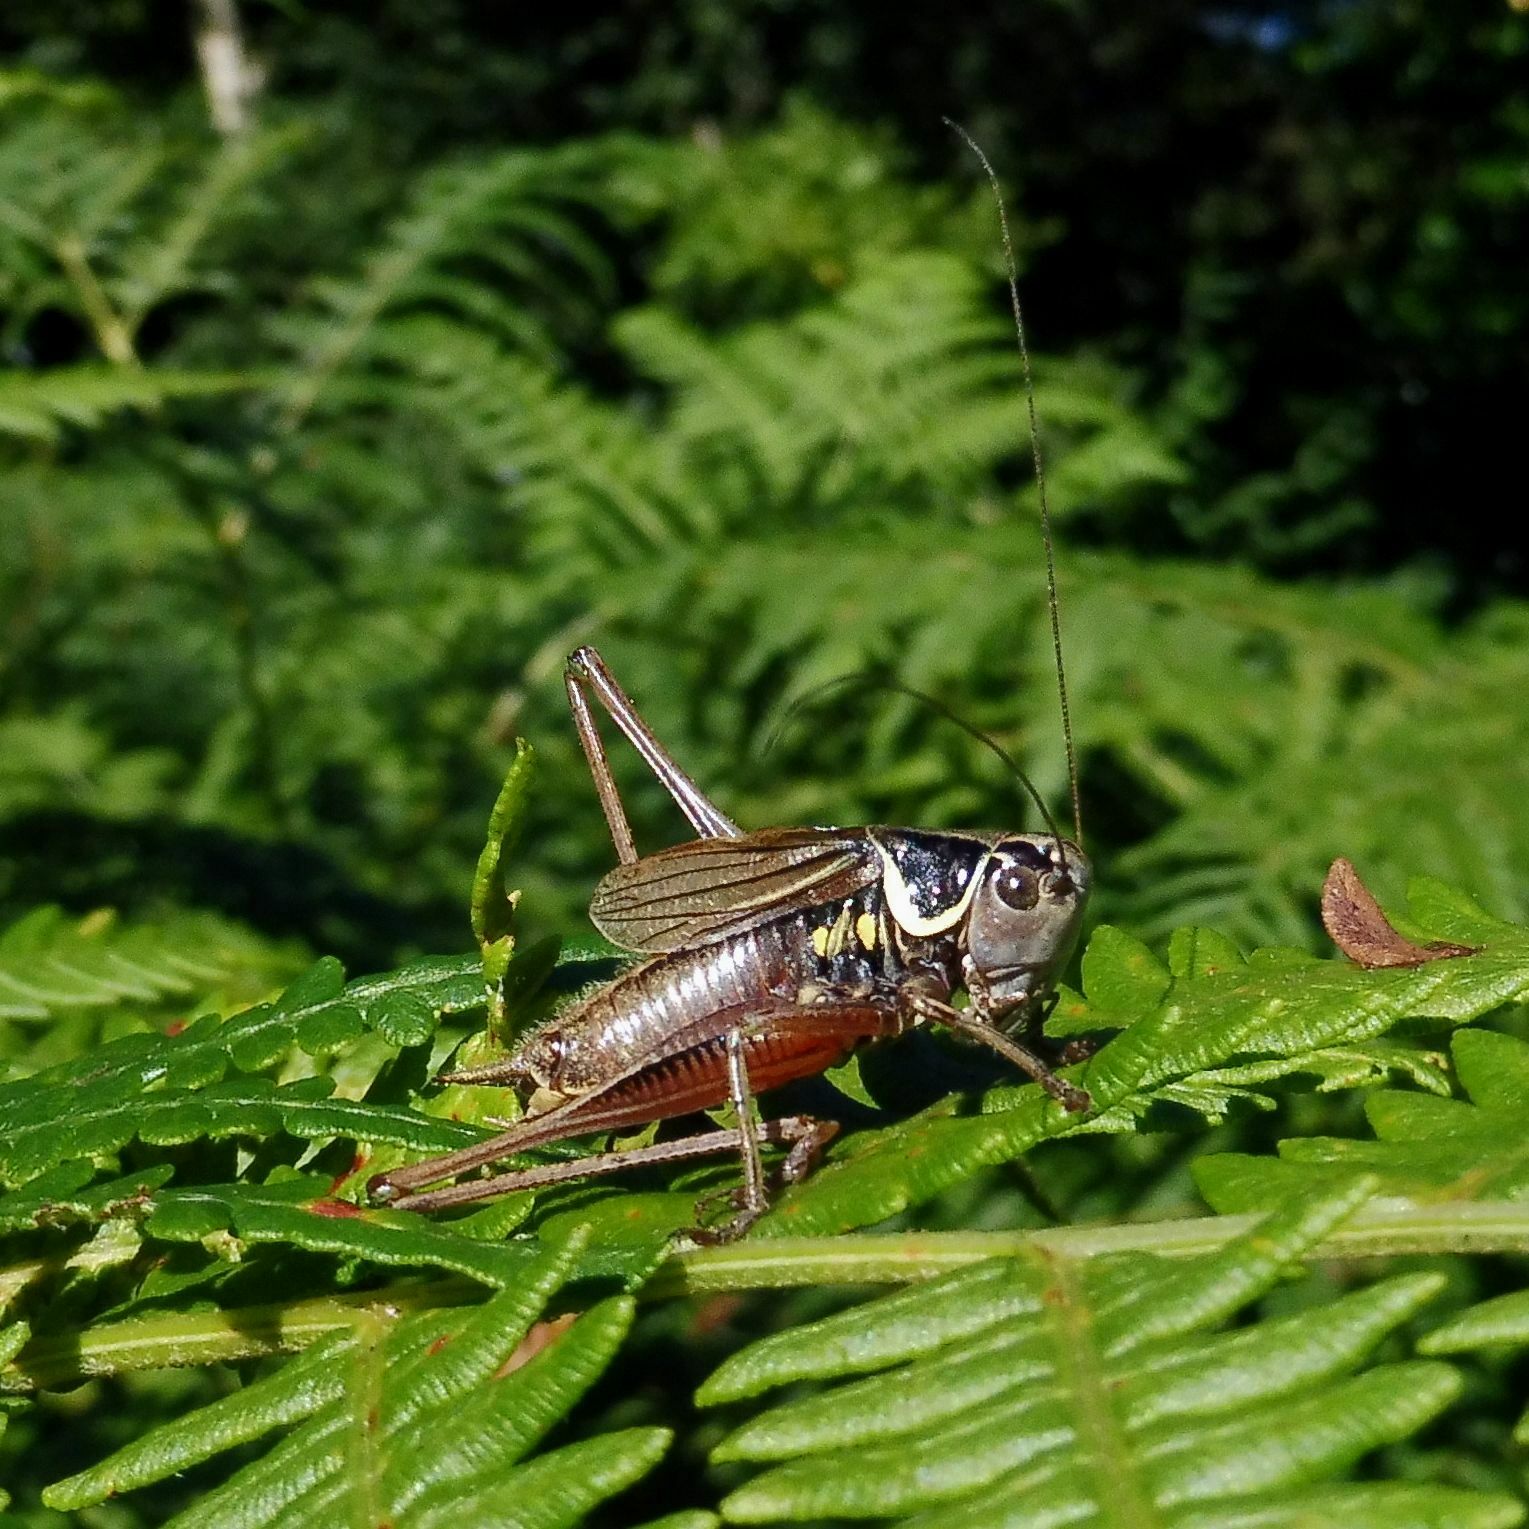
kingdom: Animalia
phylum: Arthropoda
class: Insecta
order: Orthoptera
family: Tettigoniidae
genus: Roeseliana
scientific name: Roeseliana roeselii
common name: Roesel's bush cricket
